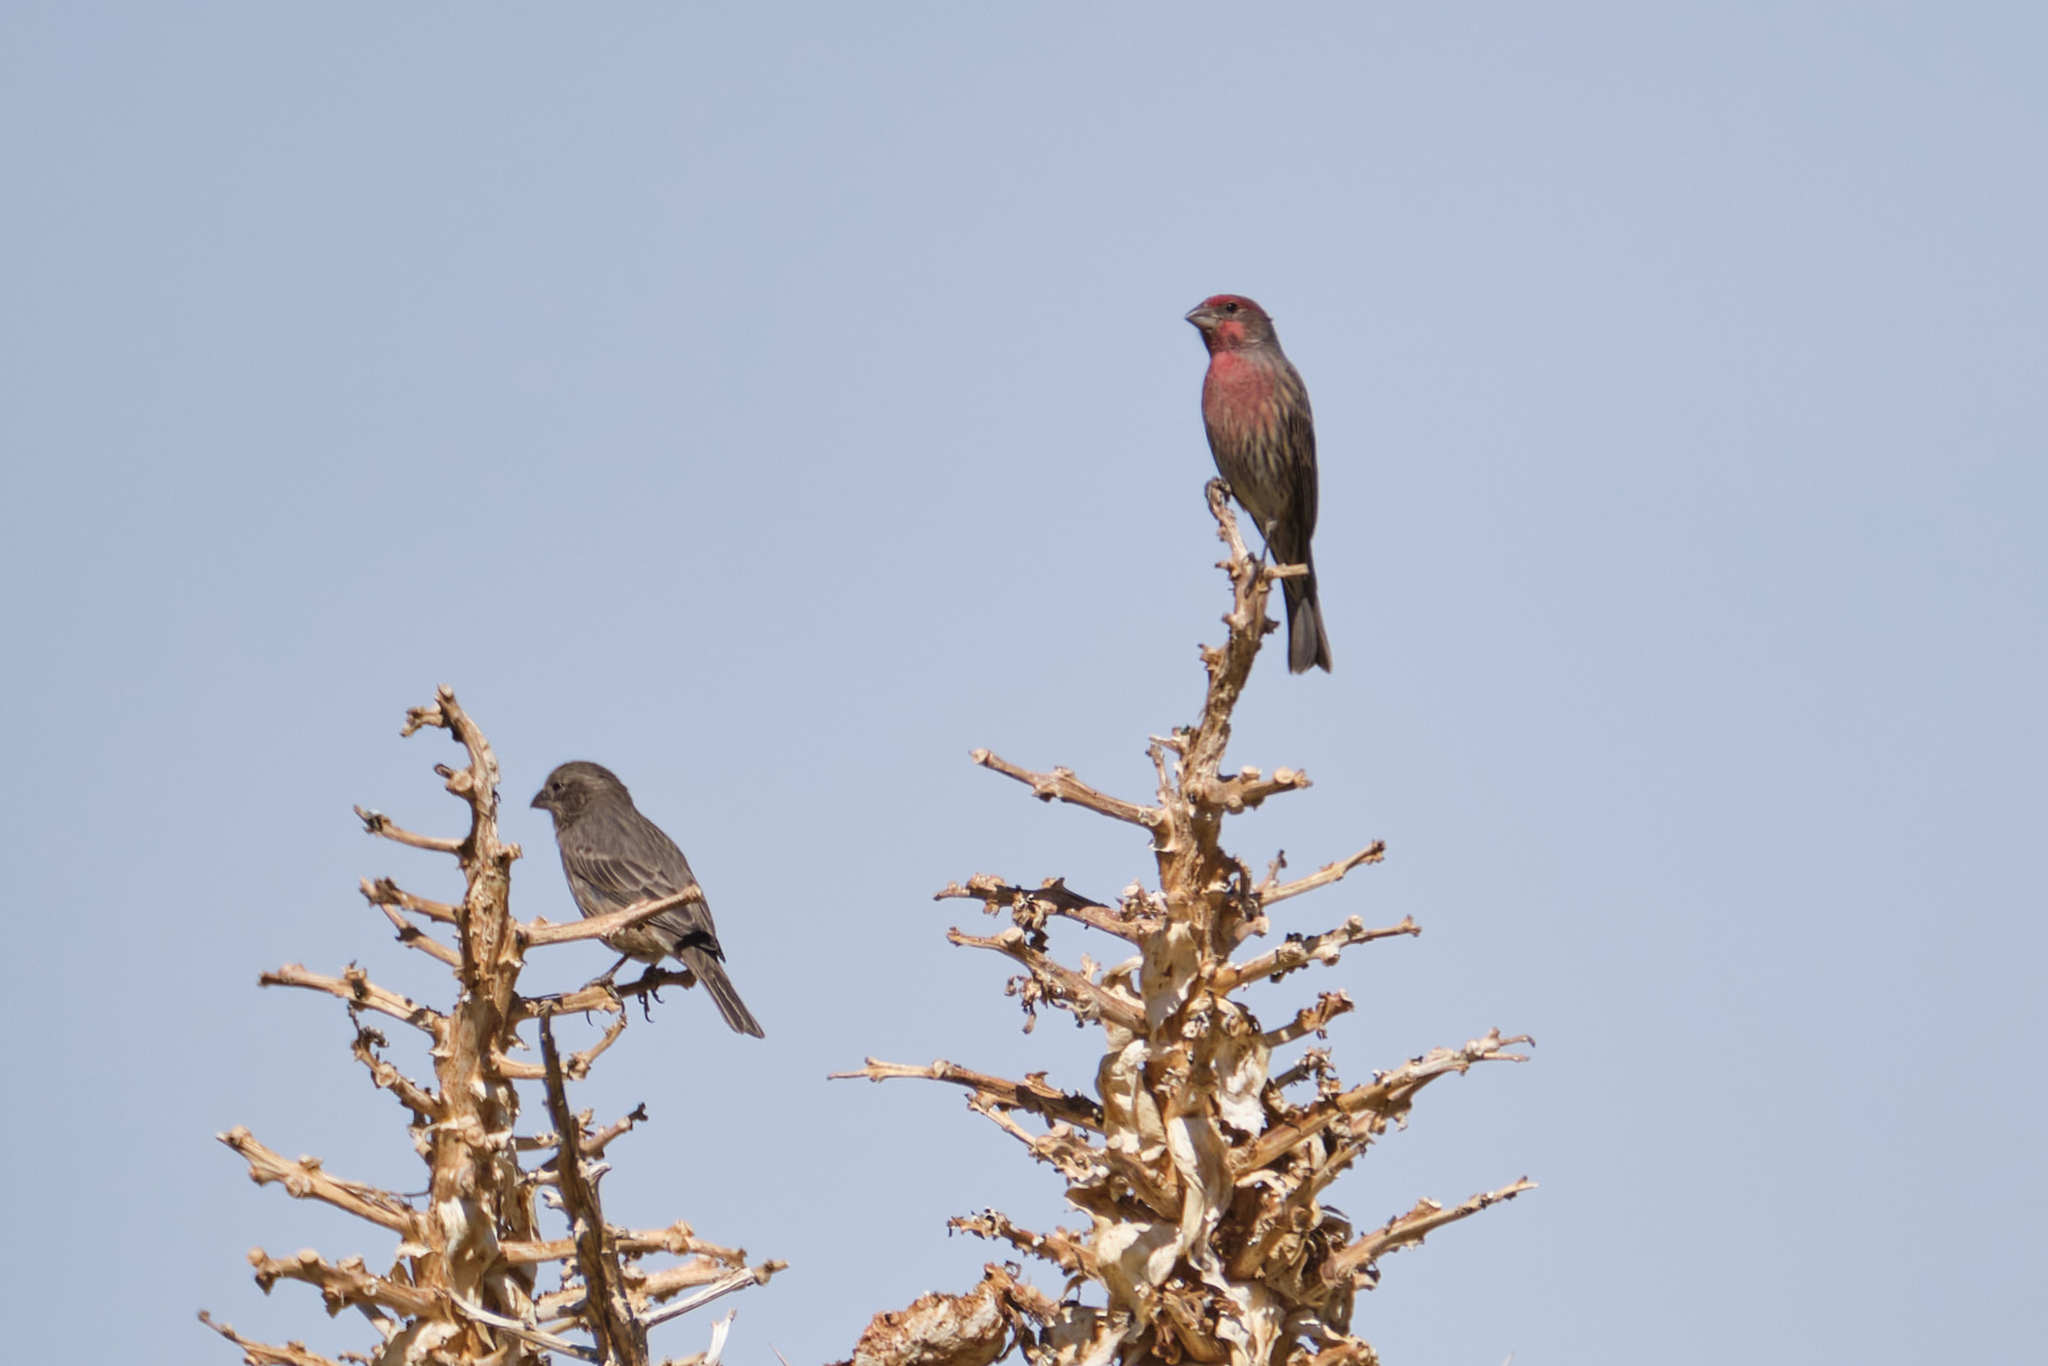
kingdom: Animalia
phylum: Chordata
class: Aves
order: Passeriformes
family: Fringillidae
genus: Haemorhous
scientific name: Haemorhous mexicanus
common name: House finch
